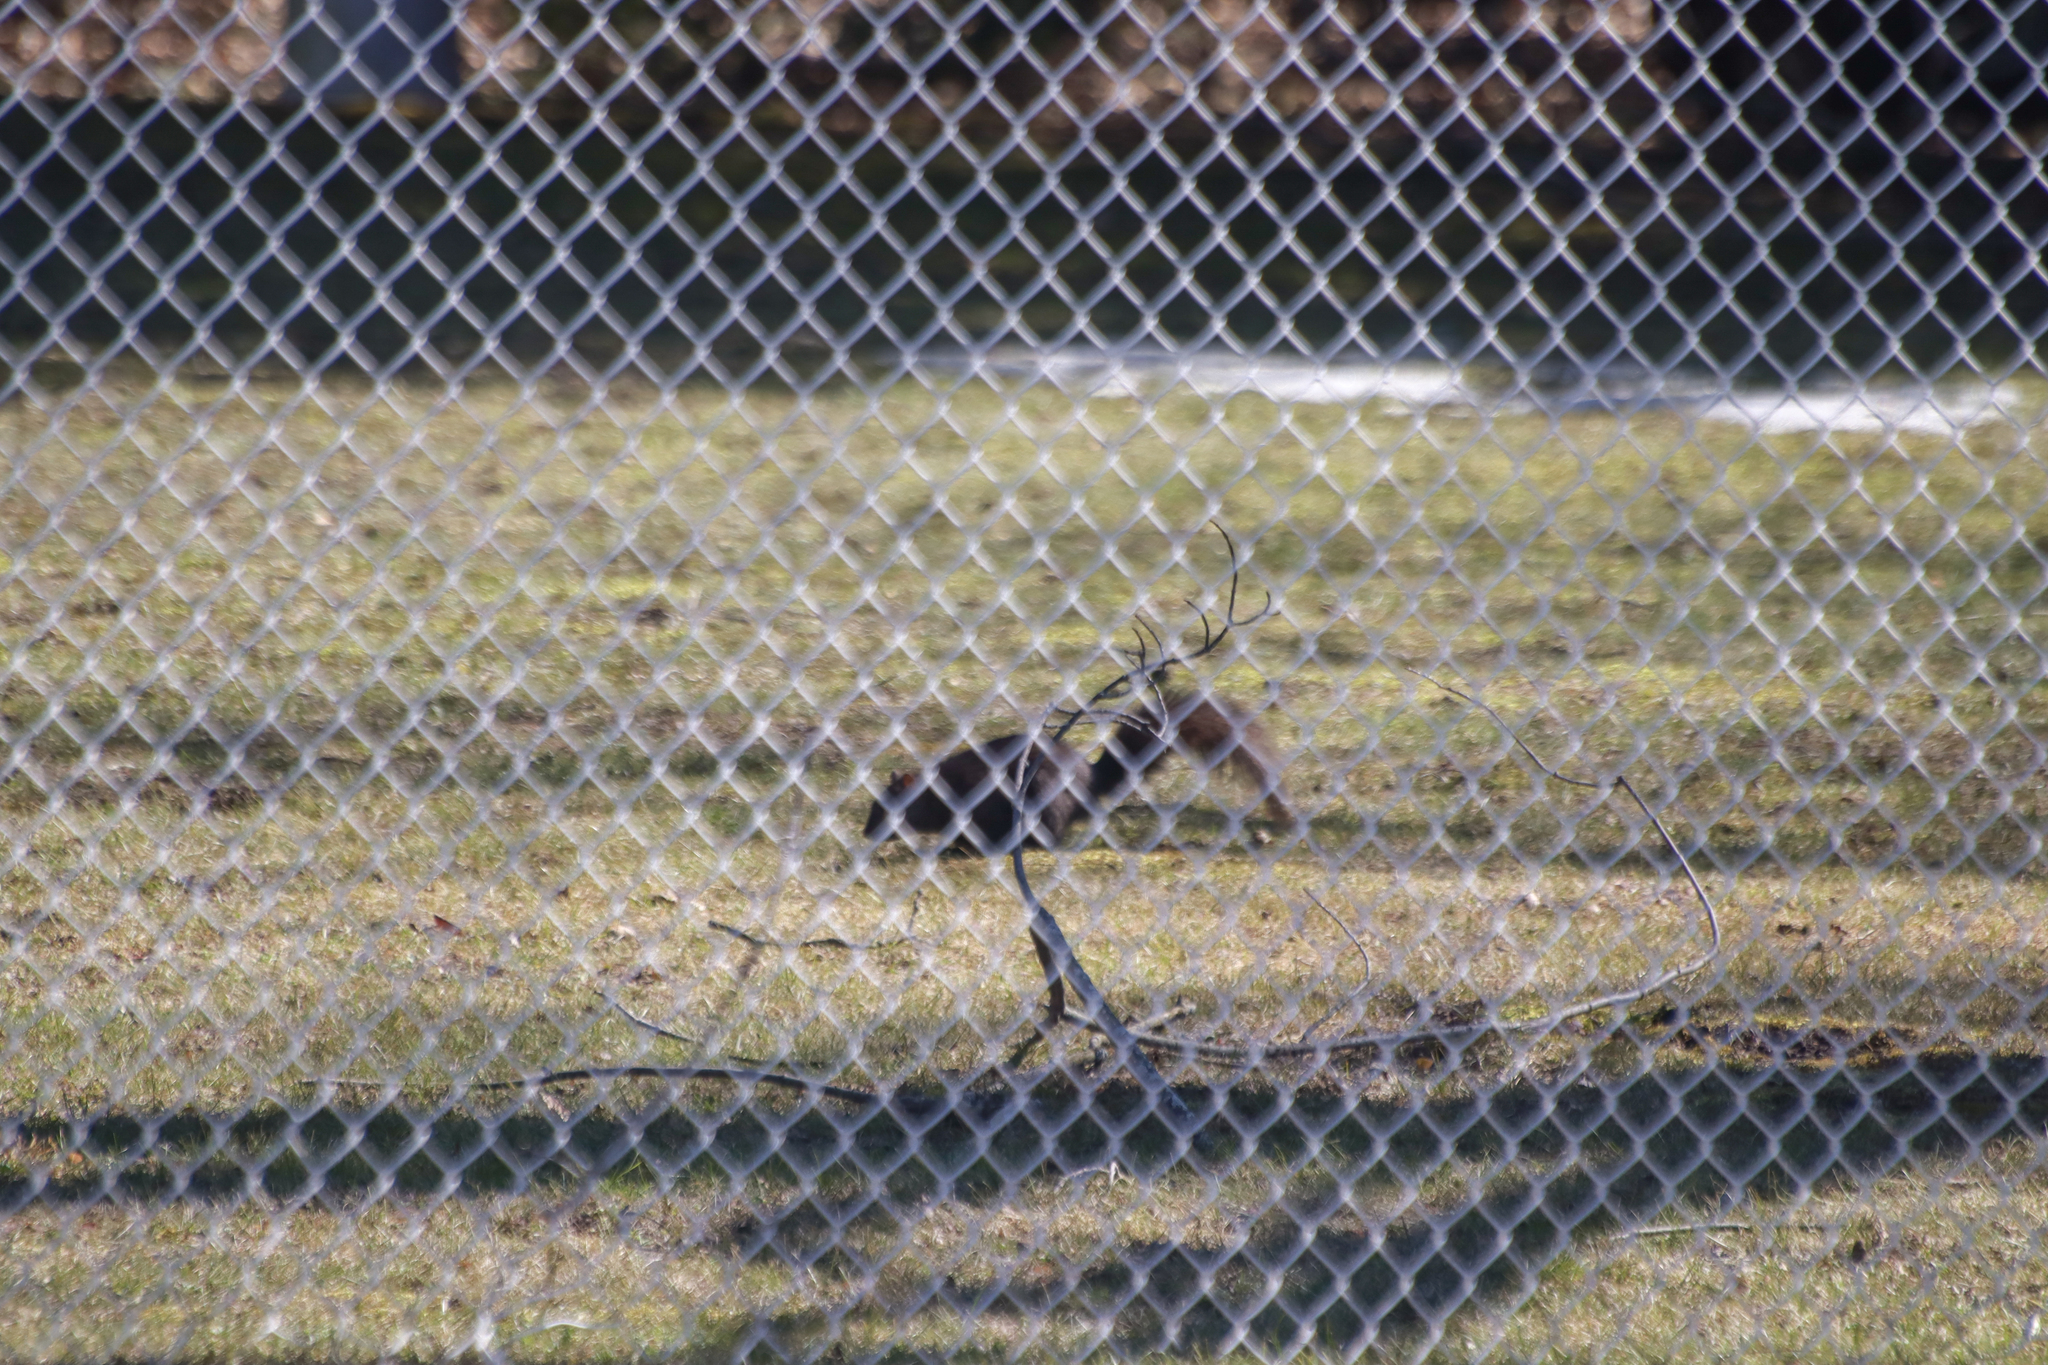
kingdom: Animalia
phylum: Chordata
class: Mammalia
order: Rodentia
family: Sciuridae
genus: Sciurus
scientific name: Sciurus carolinensis
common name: Eastern gray squirrel
